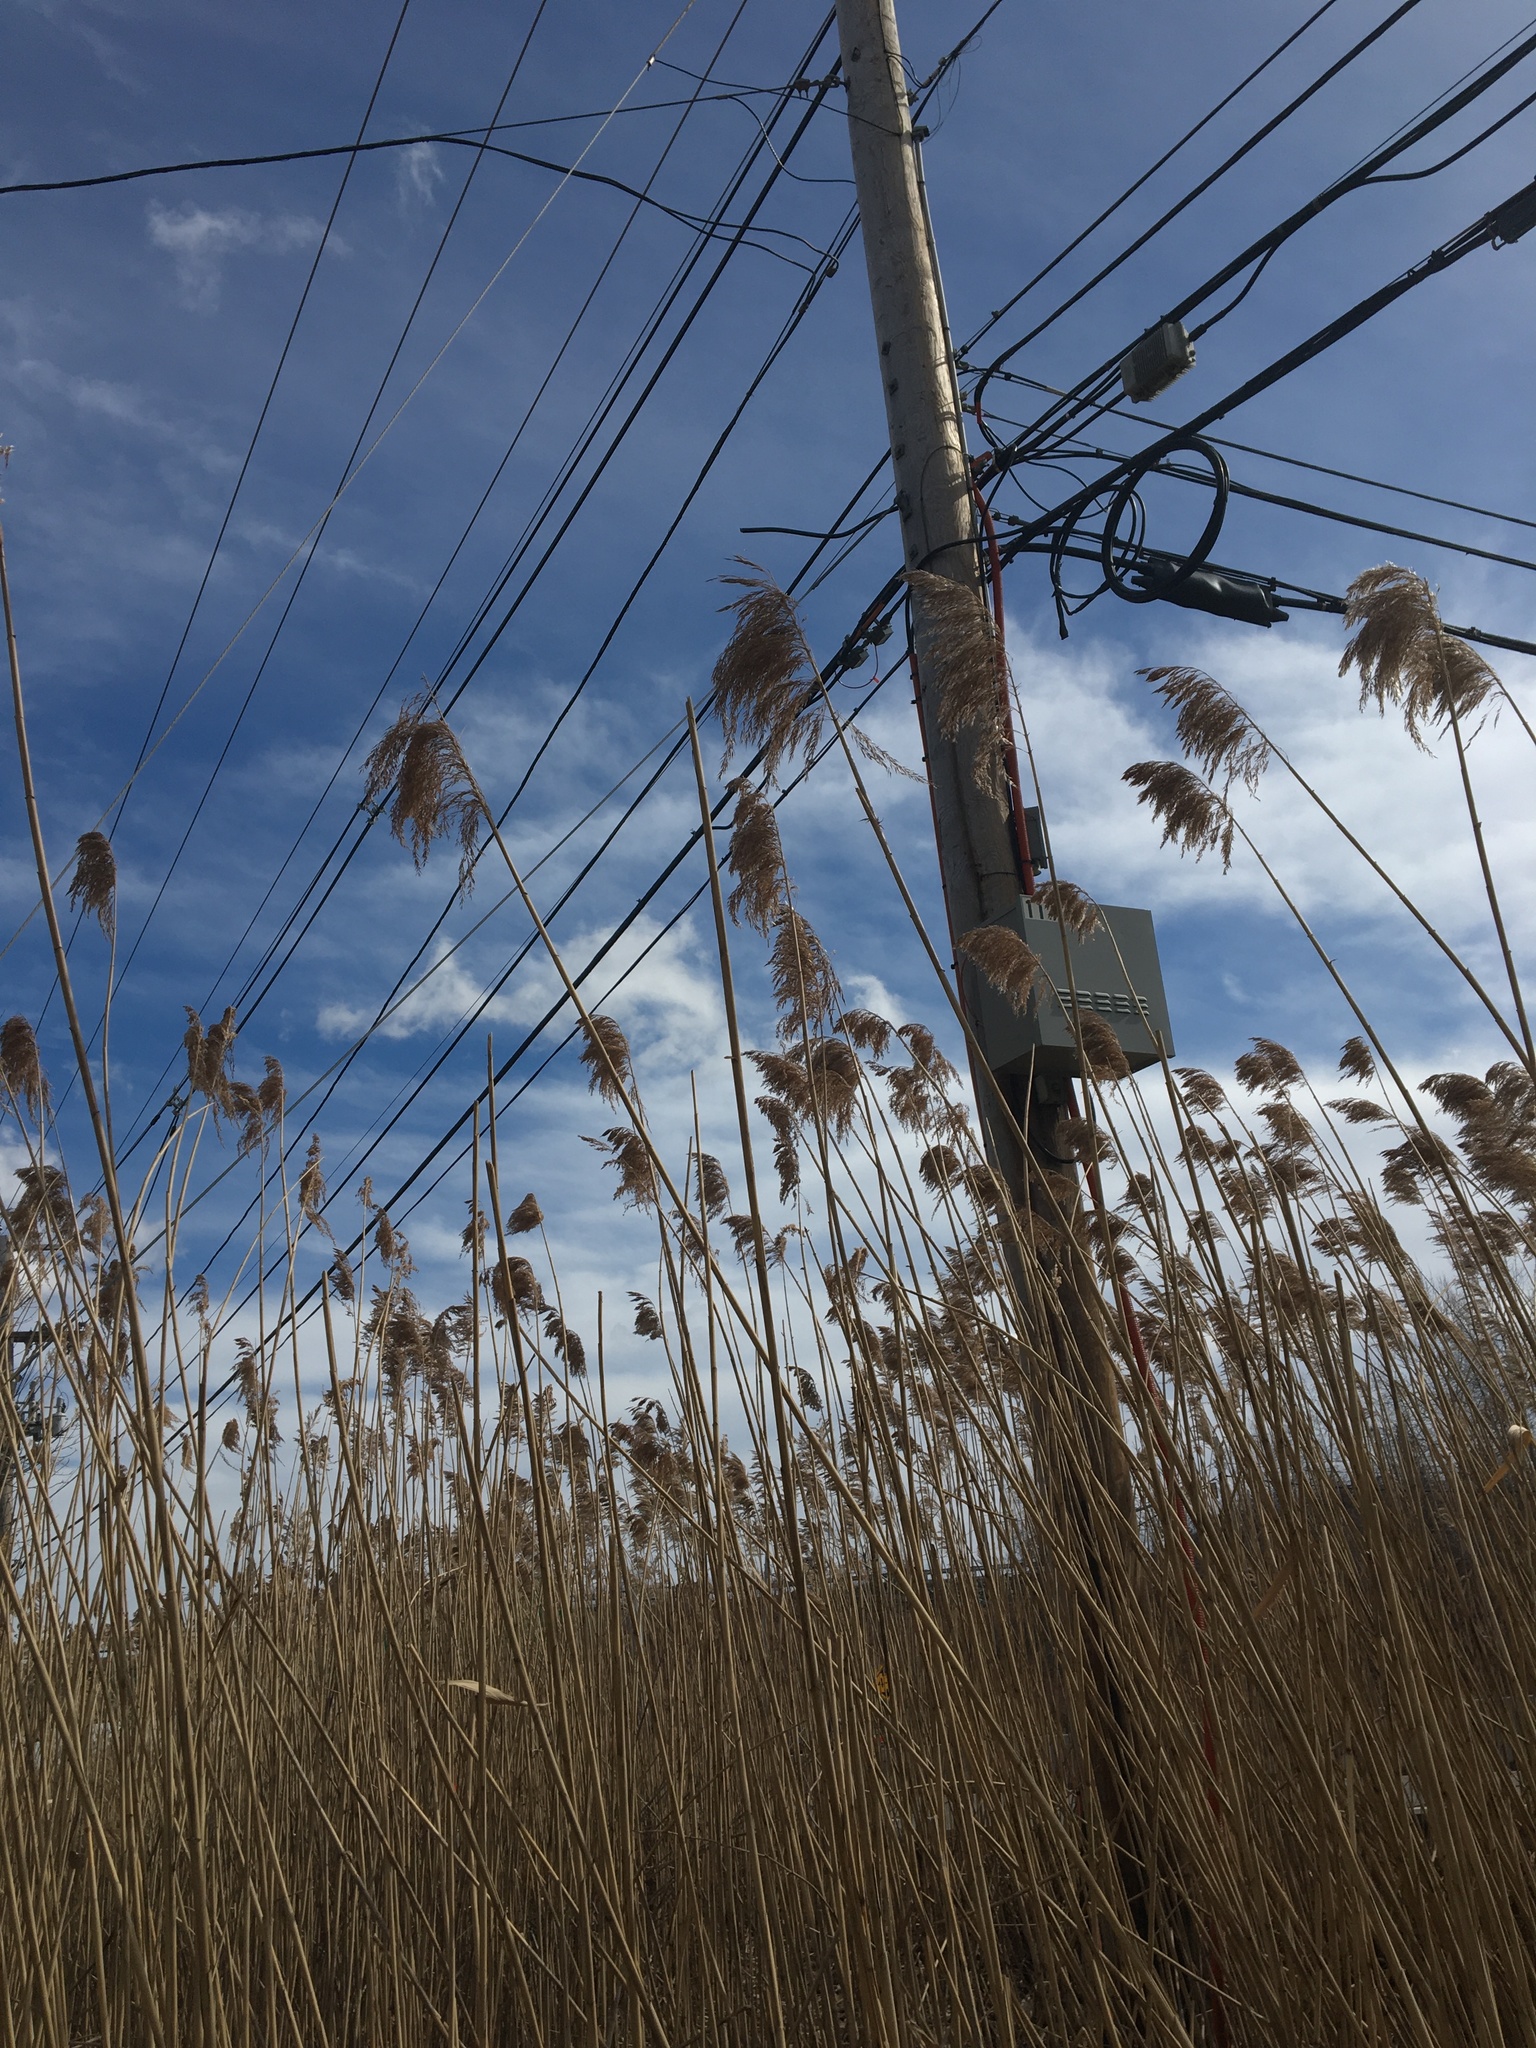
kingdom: Plantae
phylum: Tracheophyta
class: Liliopsida
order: Poales
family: Poaceae
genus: Phragmites
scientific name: Phragmites australis
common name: Common reed
